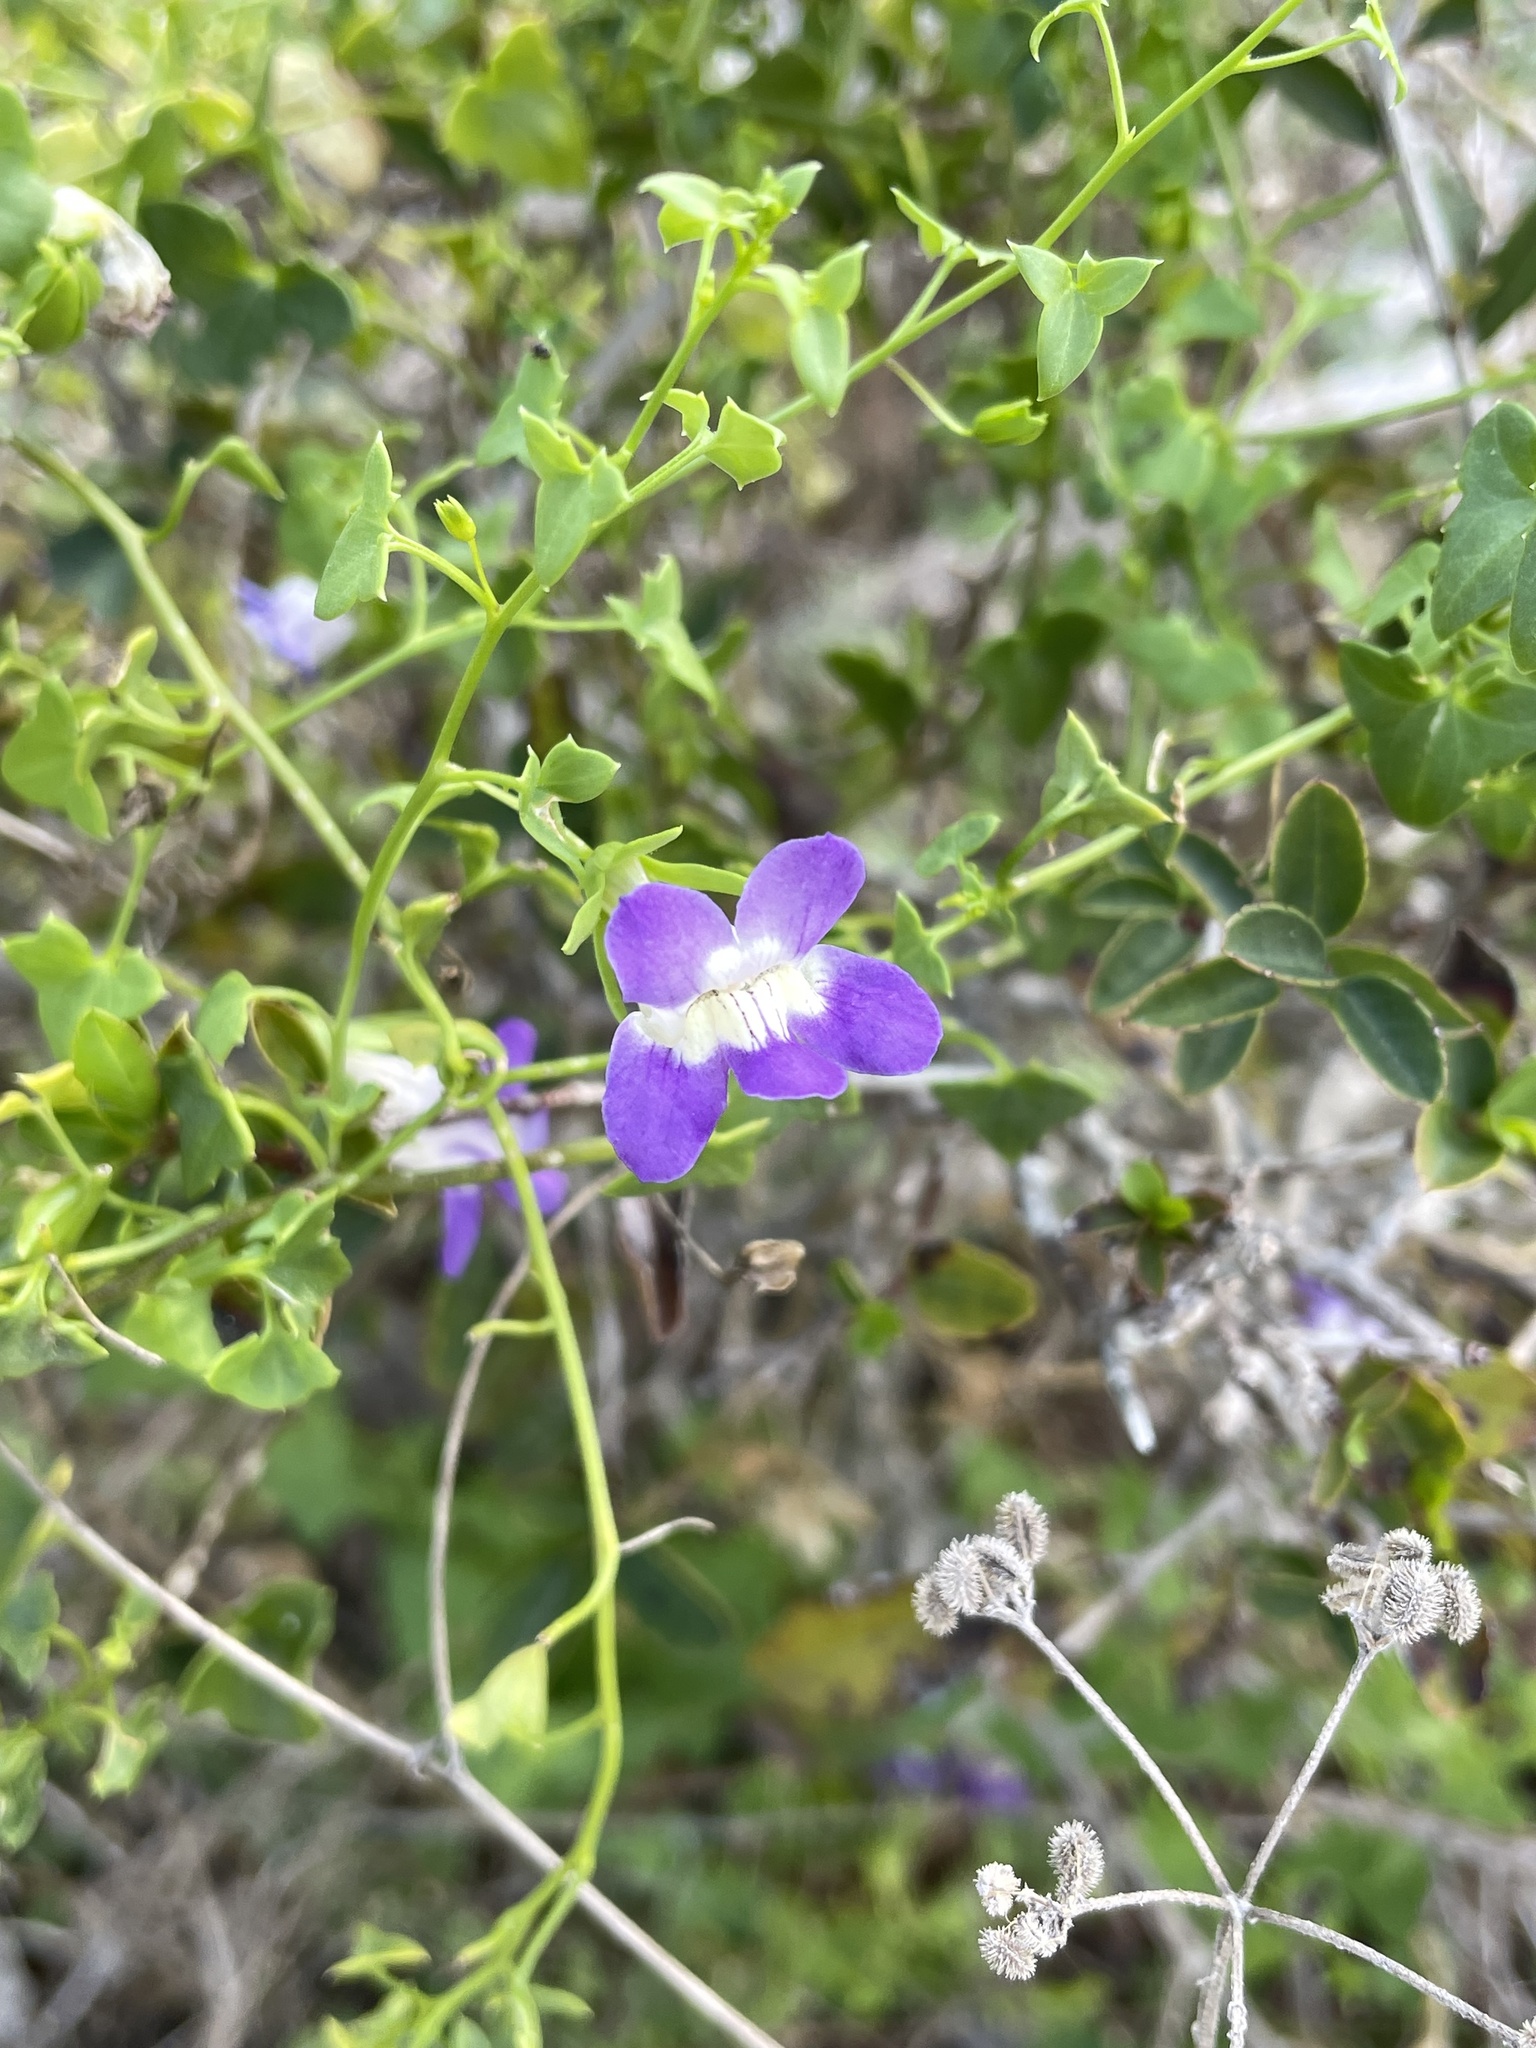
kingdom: Plantae
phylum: Tracheophyta
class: Magnoliopsida
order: Lamiales
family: Plantaginaceae
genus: Maurandella
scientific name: Maurandella antirrhiniflora
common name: Violet twining-snapdragon
